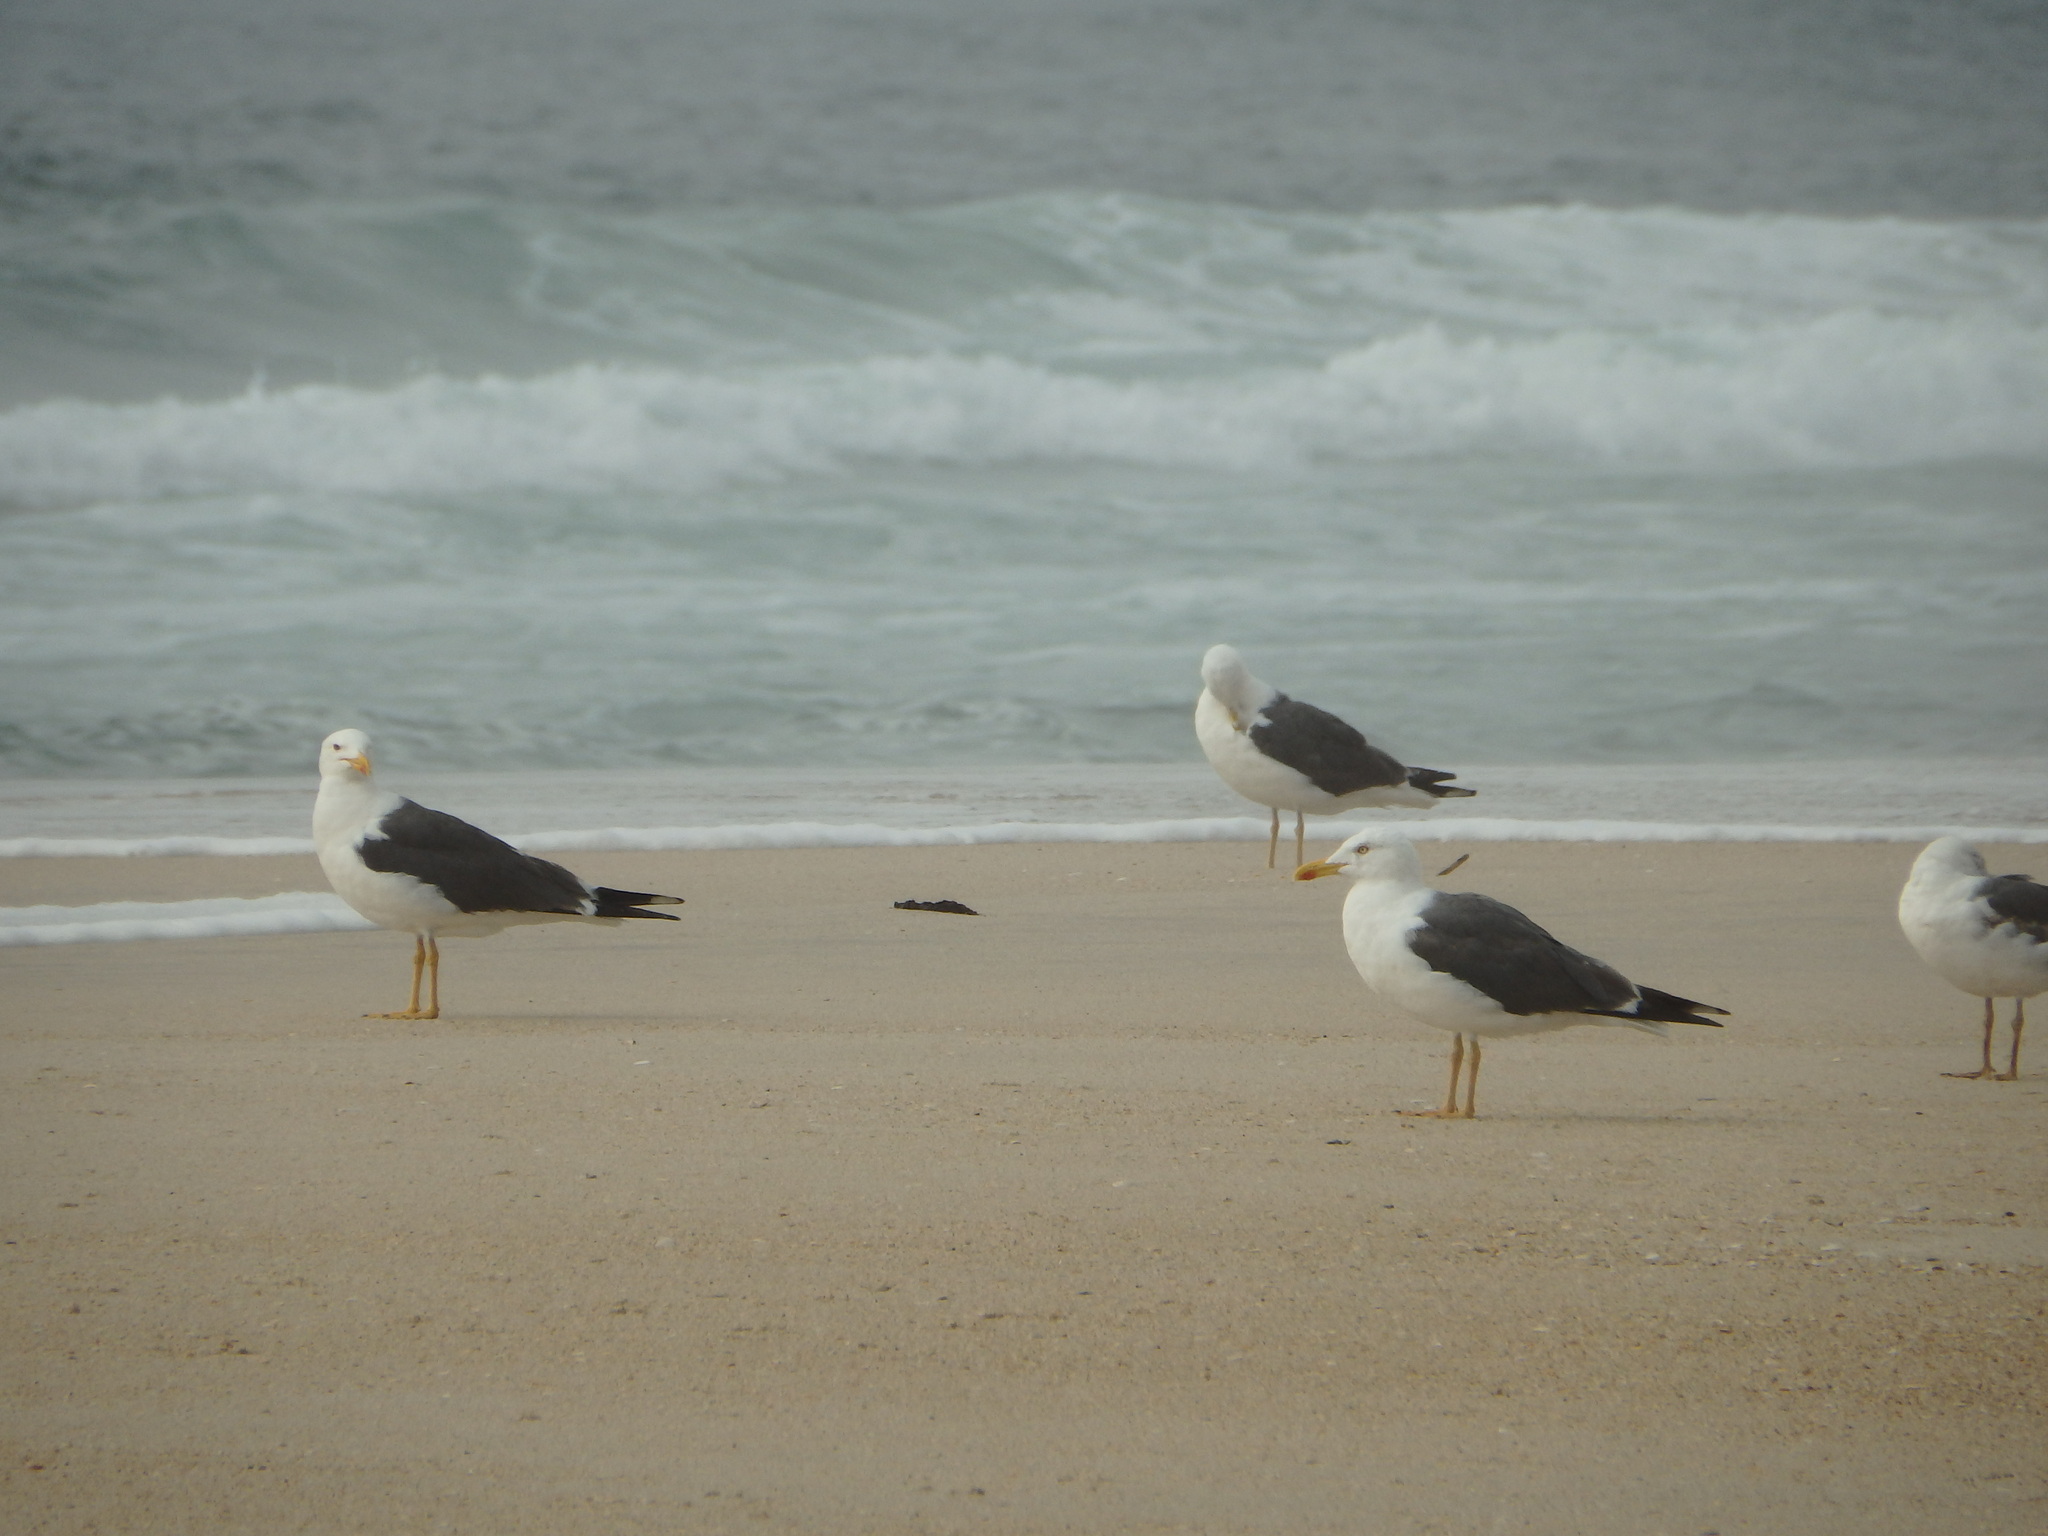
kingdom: Animalia
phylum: Chordata
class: Aves
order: Charadriiformes
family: Laridae
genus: Larus
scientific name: Larus fuscus
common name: Lesser black-backed gull
